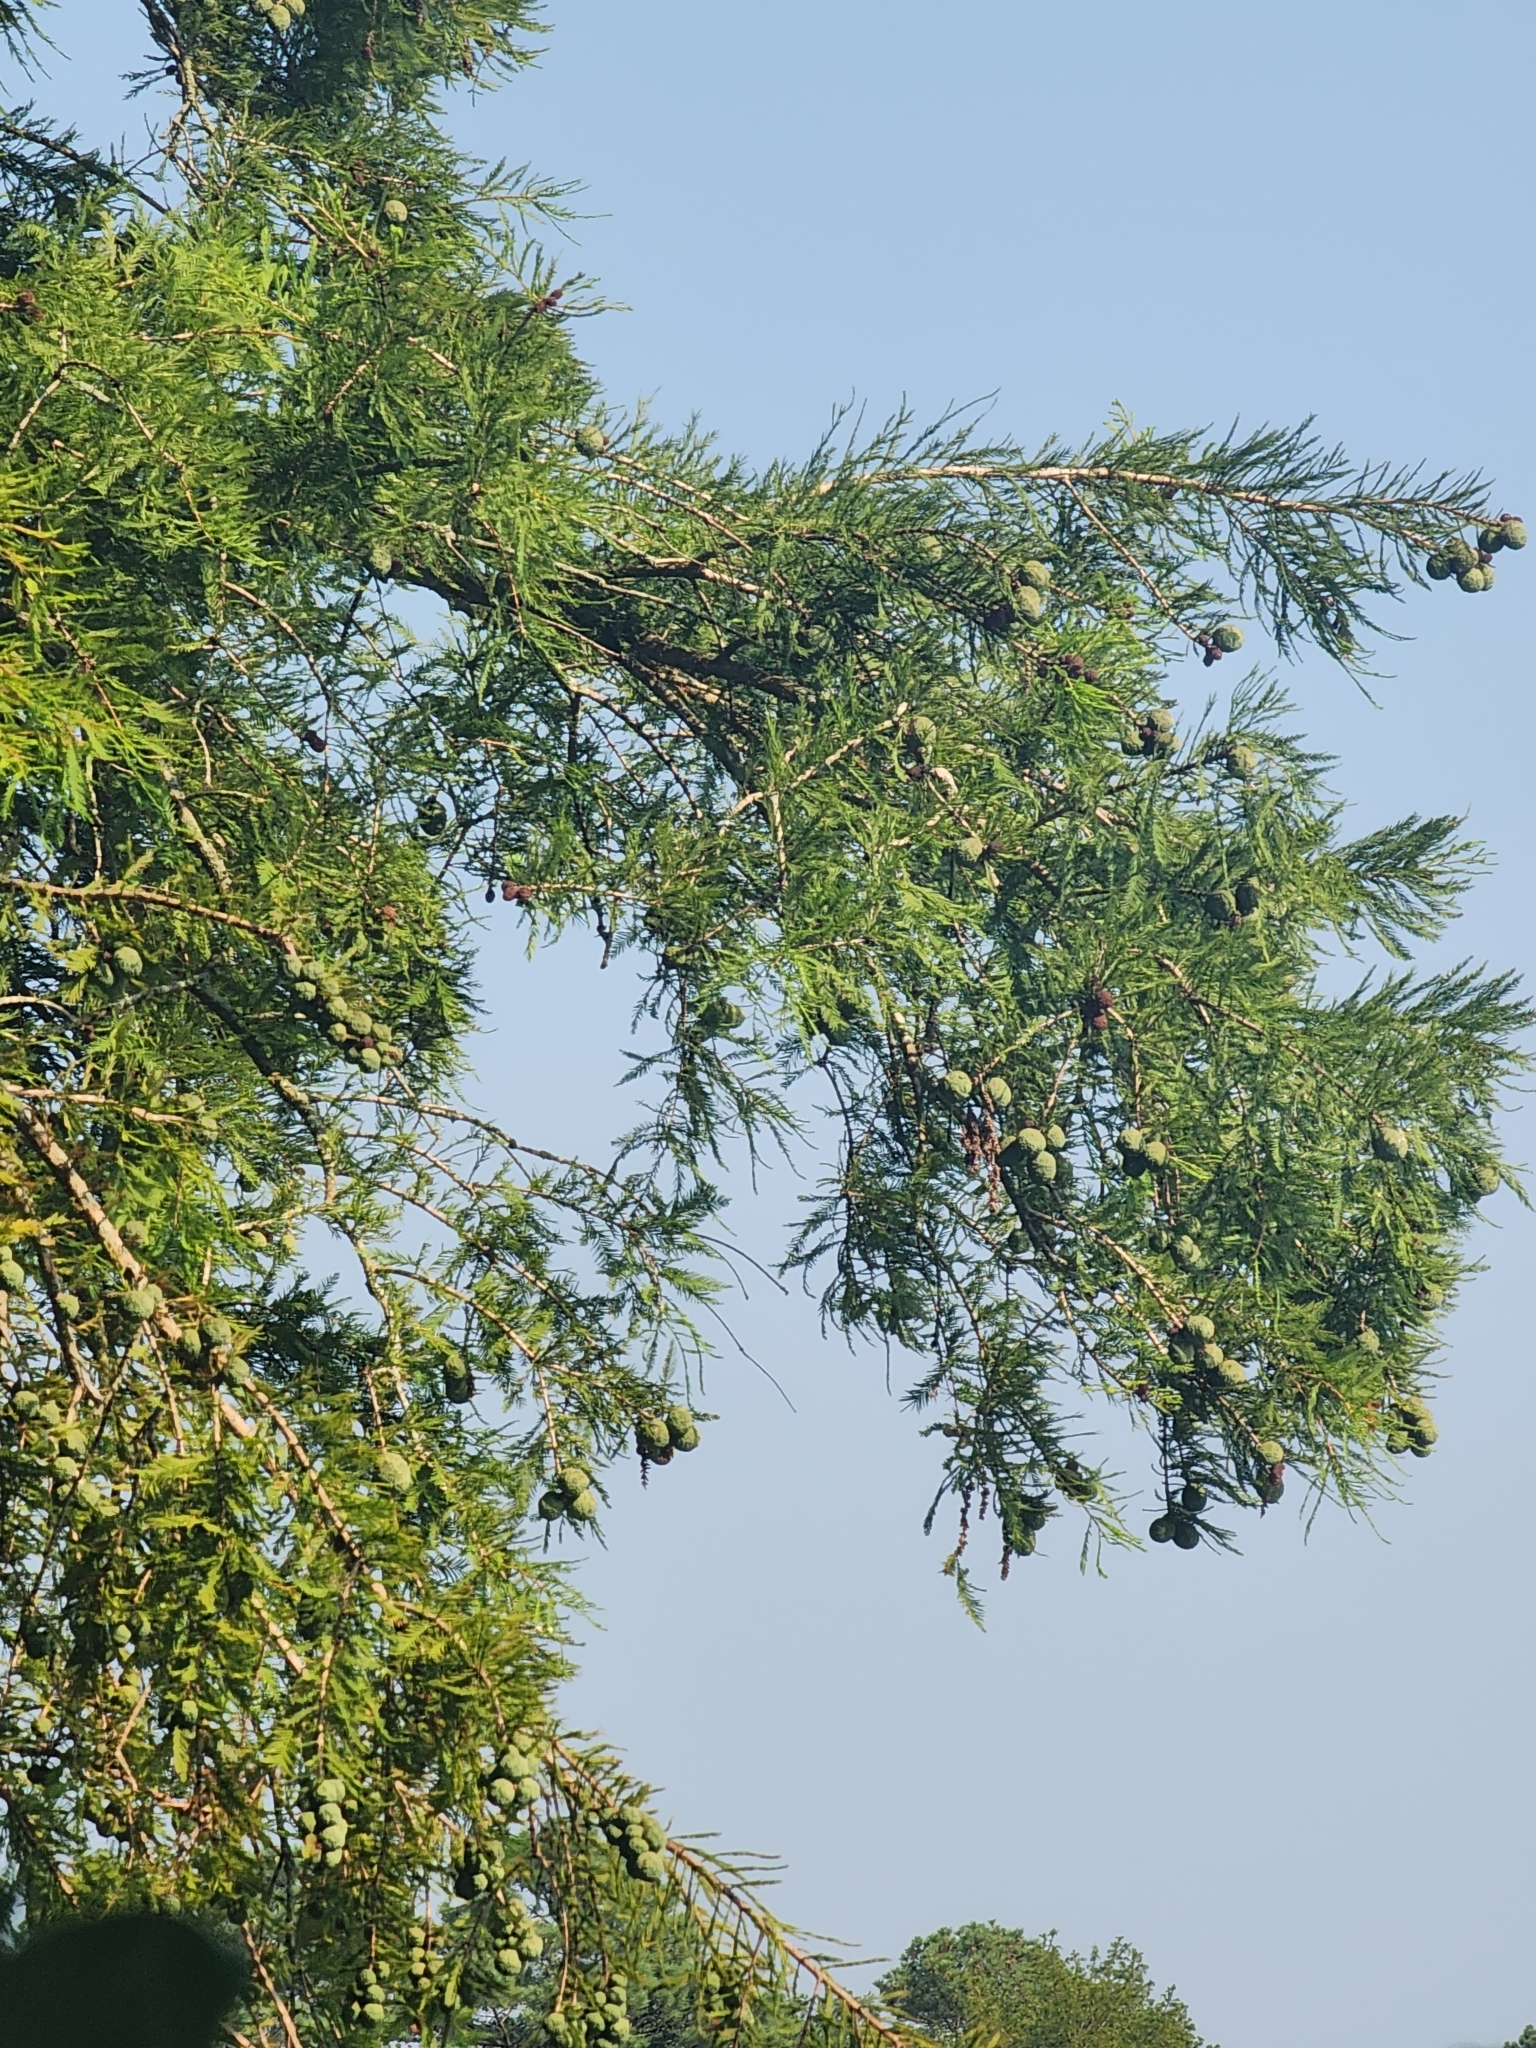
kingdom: Plantae
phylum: Tracheophyta
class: Pinopsida
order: Pinales
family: Cupressaceae
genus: Taxodium
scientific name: Taxodium distichum
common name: Bald cypress
